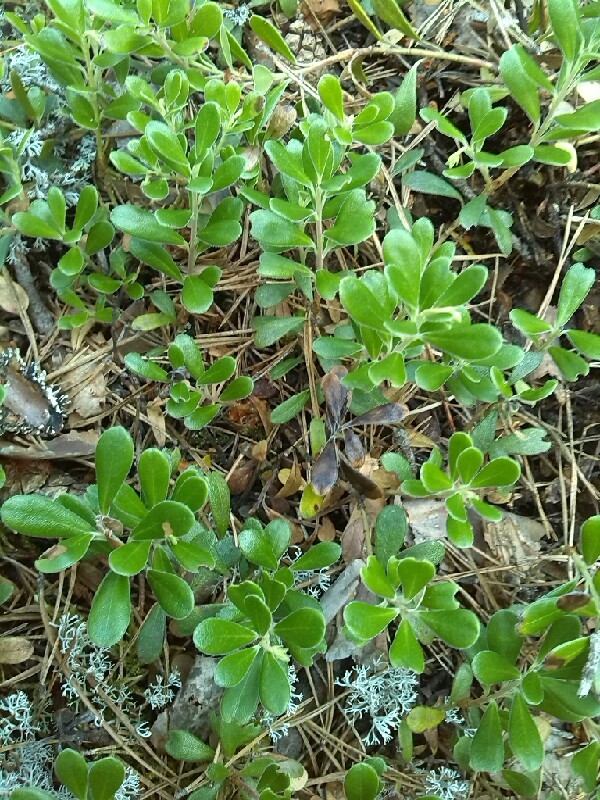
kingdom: Plantae
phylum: Tracheophyta
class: Magnoliopsida
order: Ericales
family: Ericaceae
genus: Arctostaphylos
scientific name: Arctostaphylos uva-ursi
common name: Bearberry
